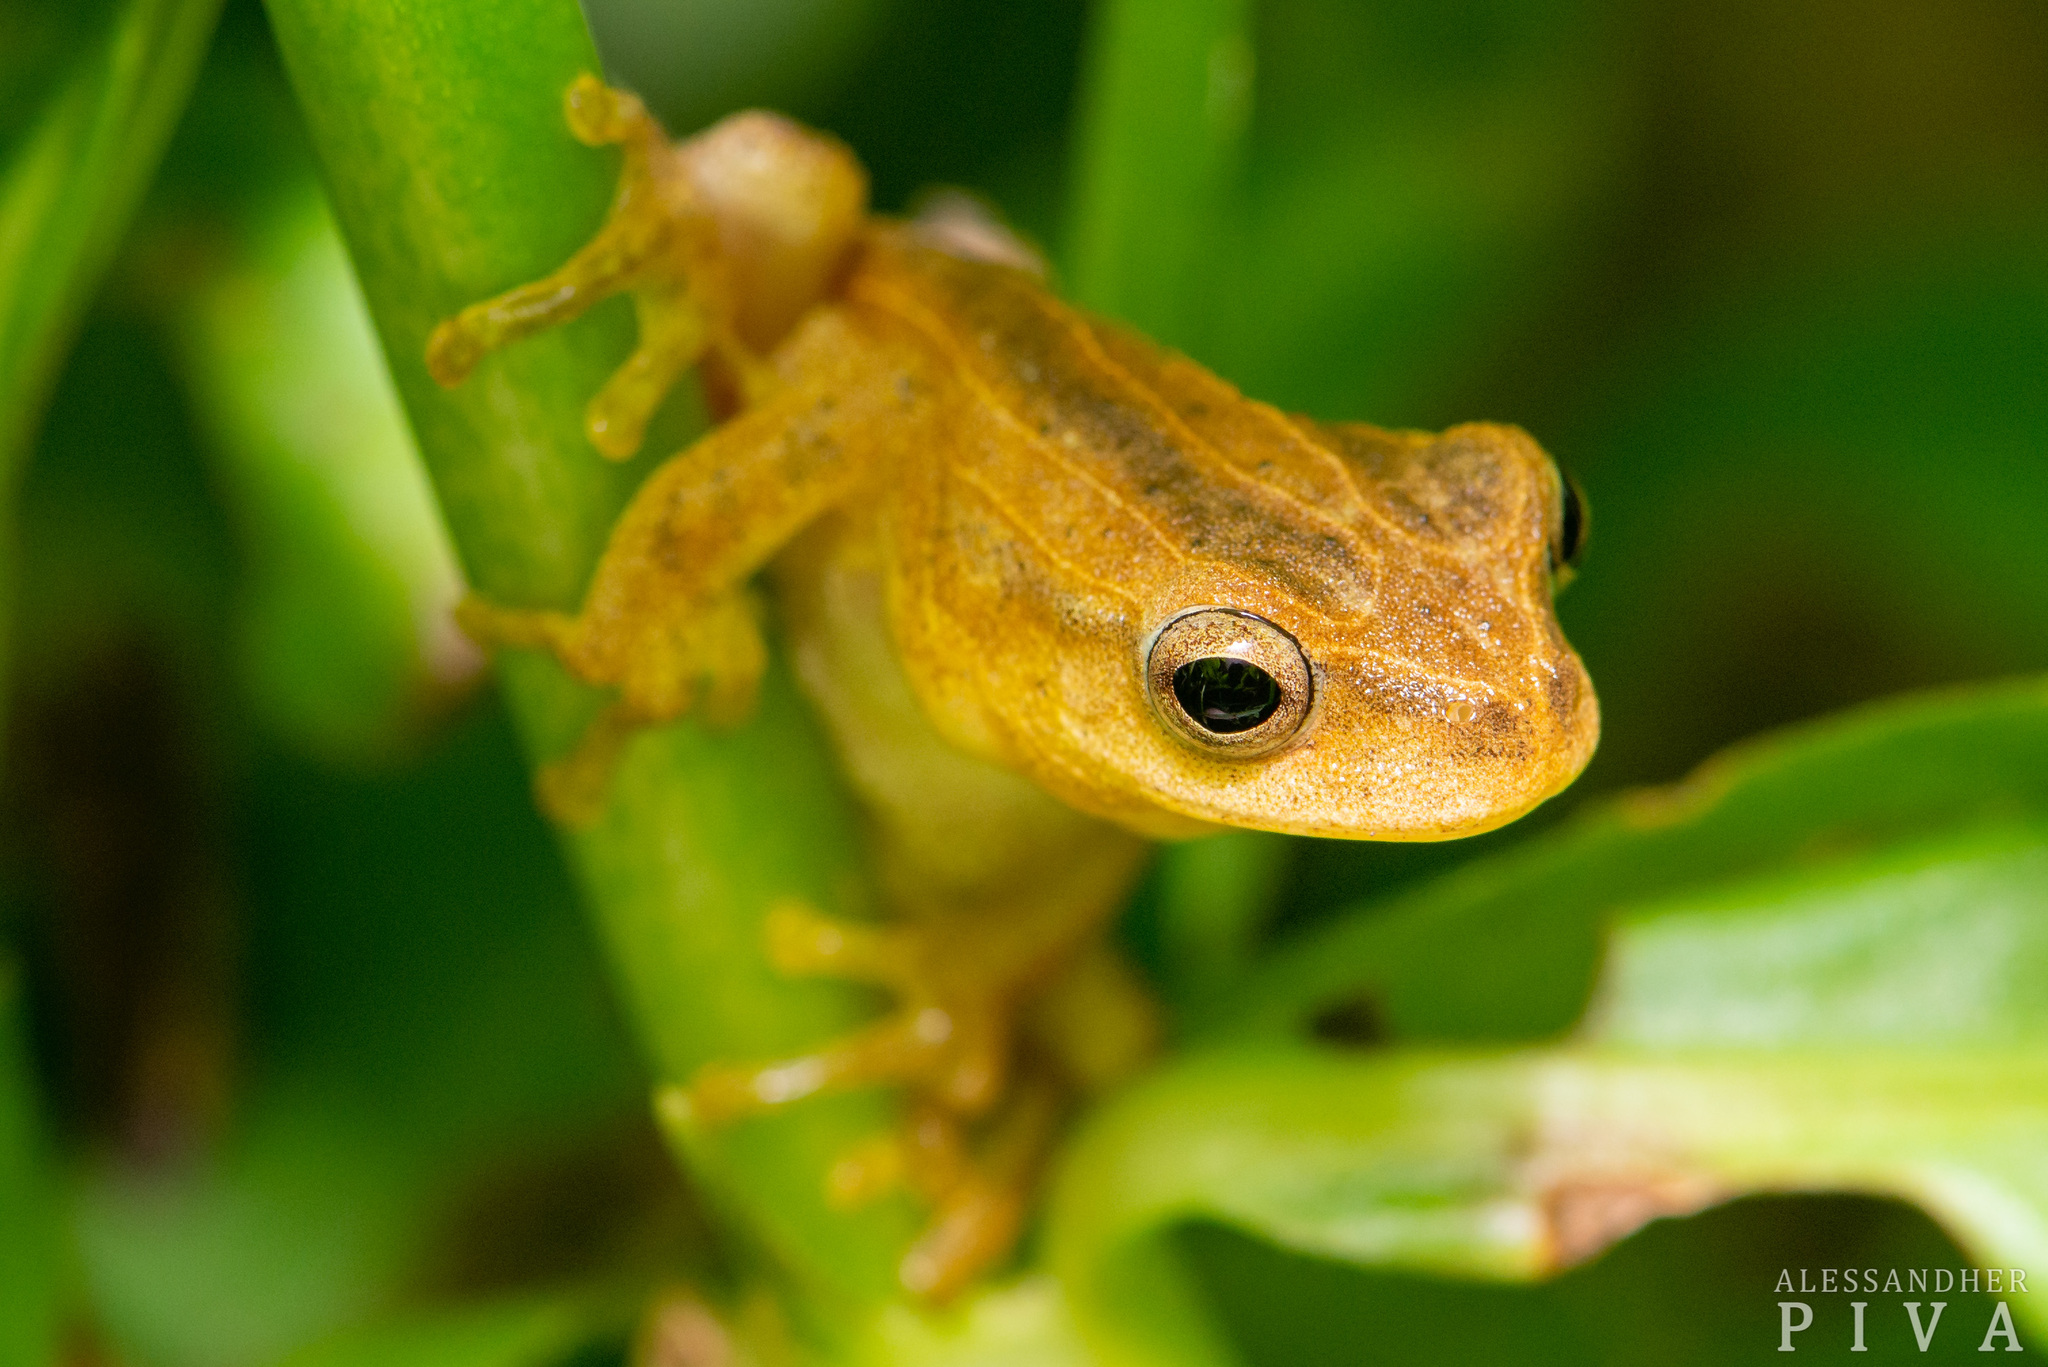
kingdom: Animalia
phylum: Chordata
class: Amphibia
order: Anura
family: Hylidae
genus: Dendropsophus
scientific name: Dendropsophus minutus
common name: Lesser treefrog
